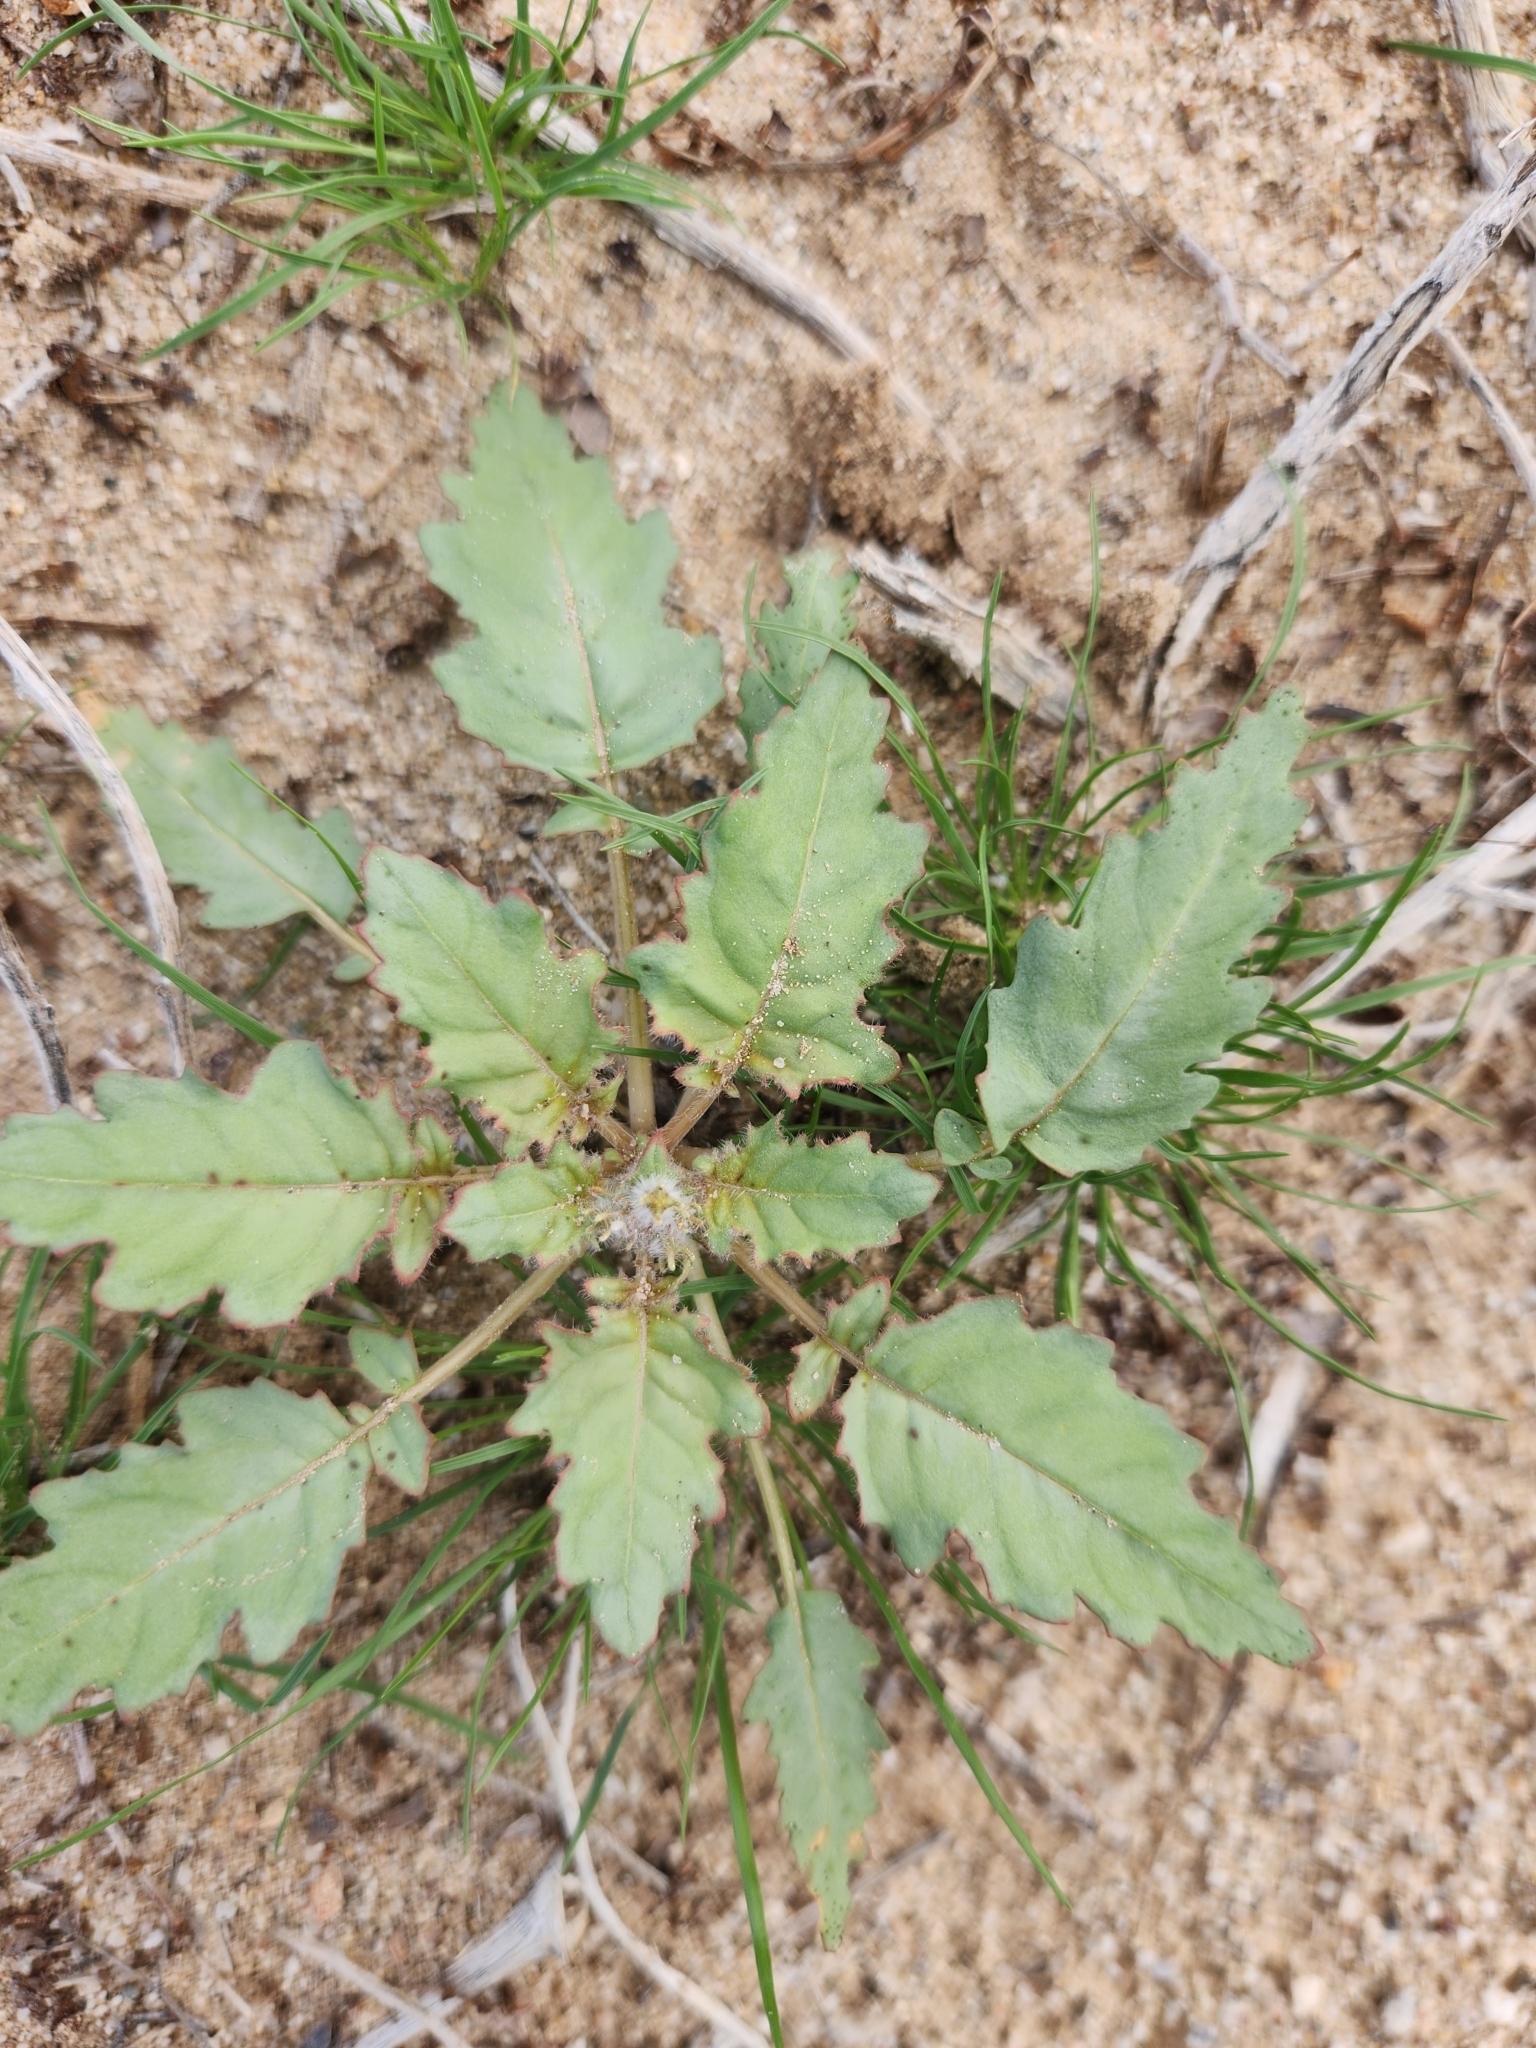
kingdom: Plantae
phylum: Tracheophyta
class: Magnoliopsida
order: Myrtales
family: Onagraceae
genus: Chylismia
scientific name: Chylismia claviformis
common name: Browneyes
